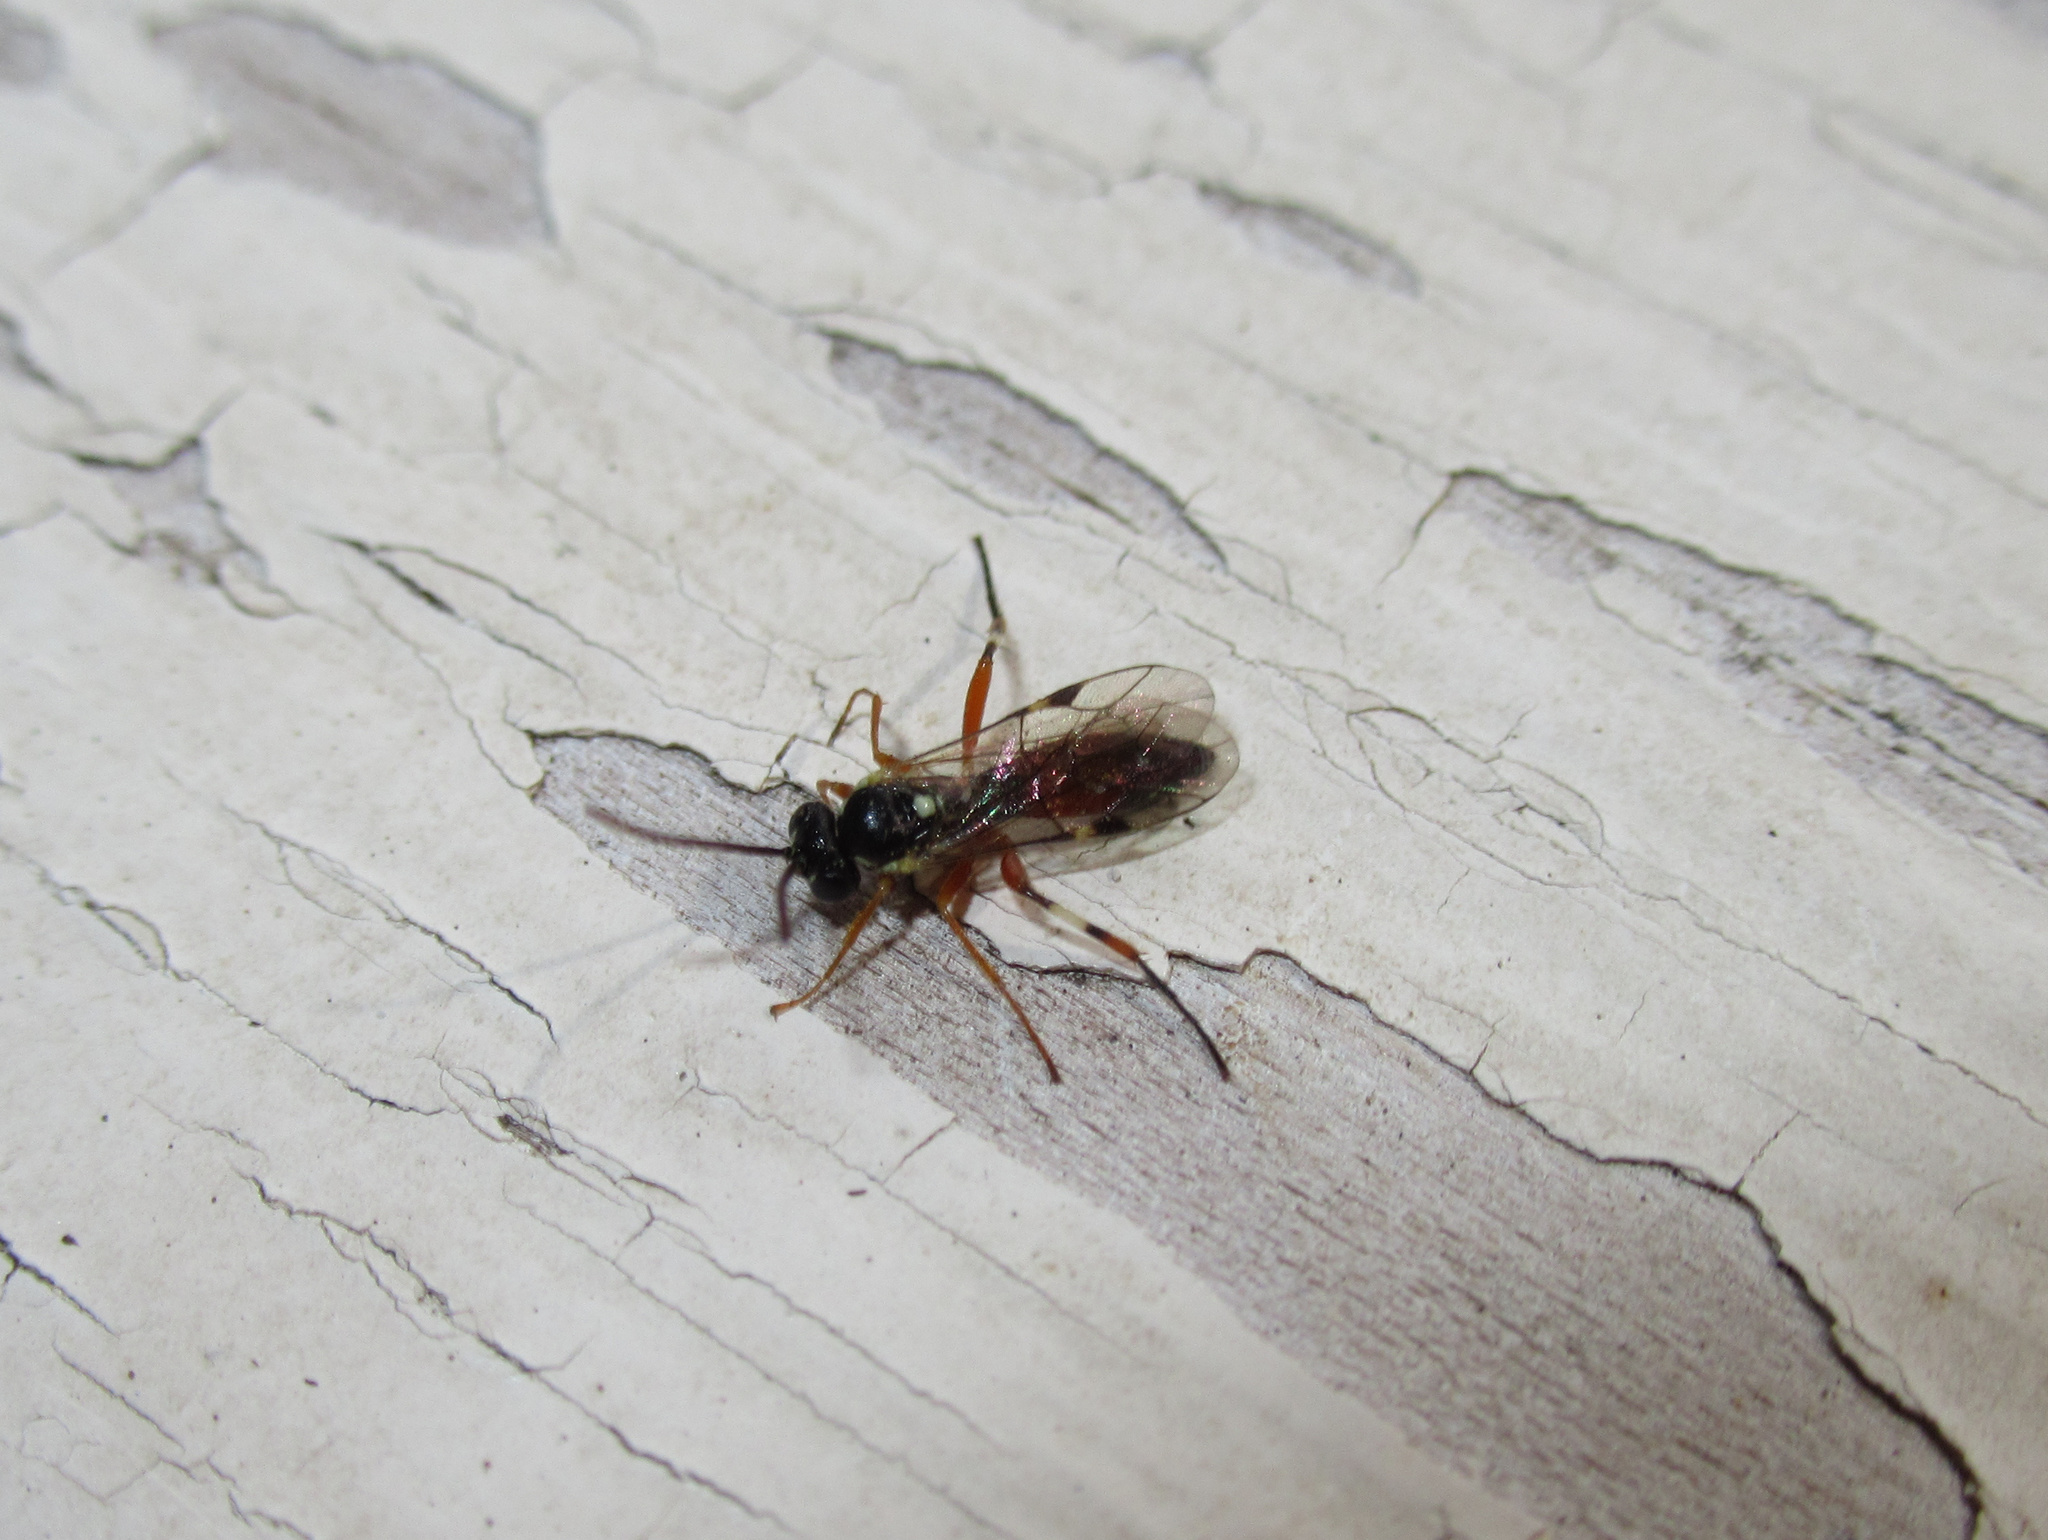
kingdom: Animalia
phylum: Arthropoda
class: Insecta
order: Hymenoptera
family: Ichneumonidae
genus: Diplazon
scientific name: Diplazon laetatorius
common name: Parasitoid wasp
